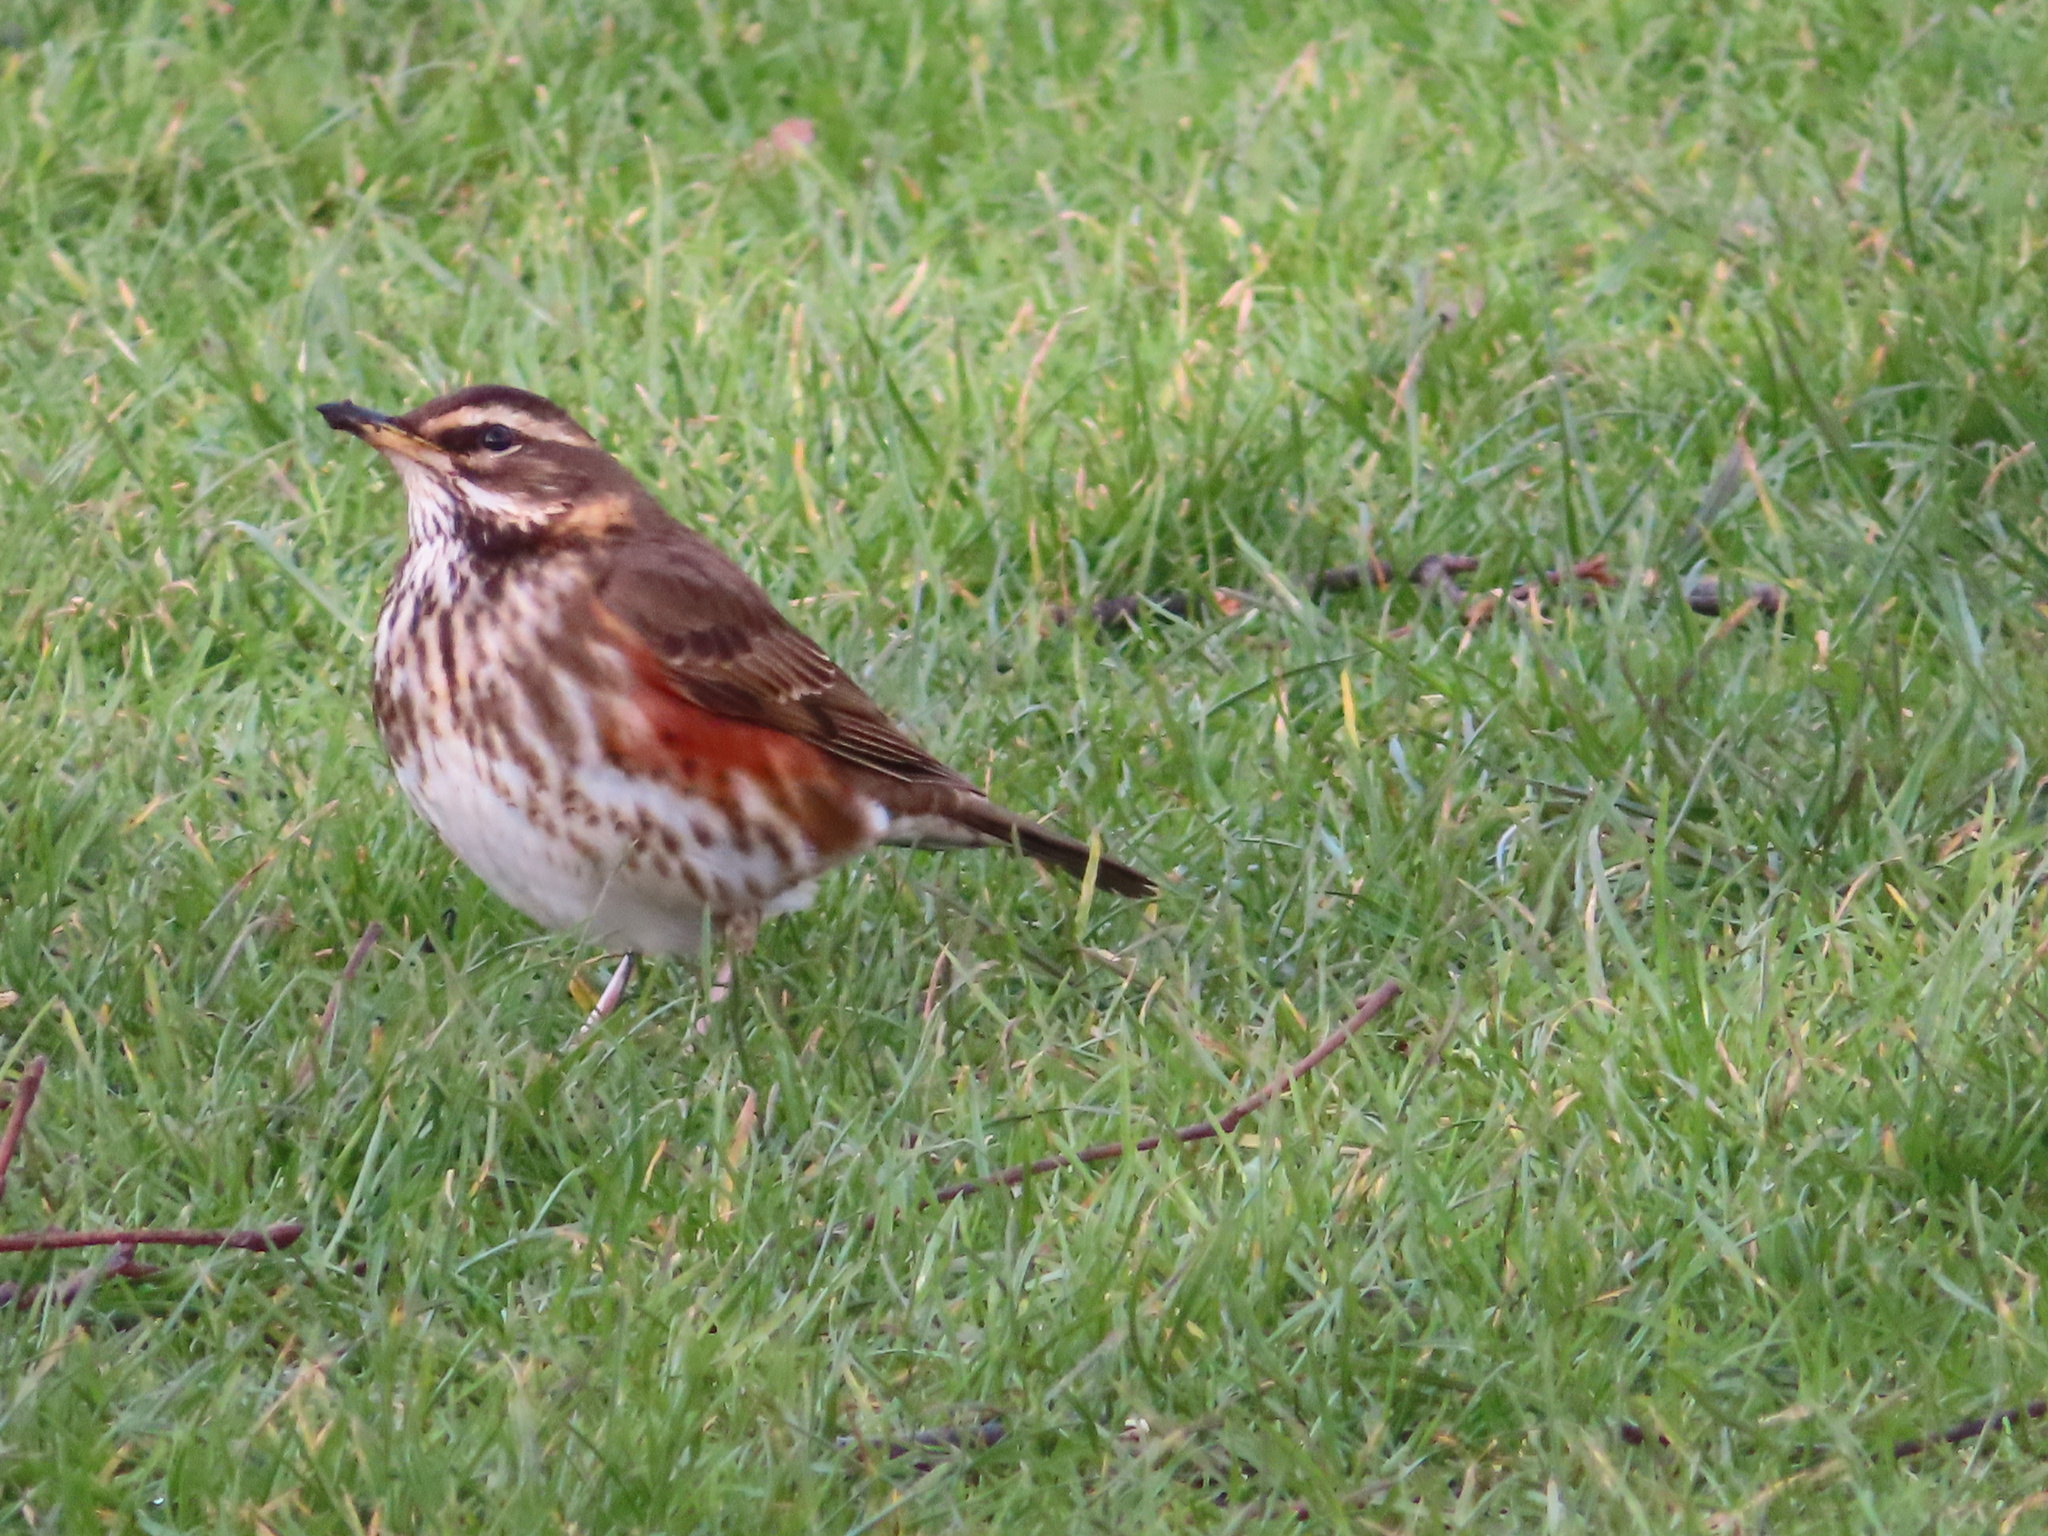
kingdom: Animalia
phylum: Chordata
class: Aves
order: Passeriformes
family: Turdidae
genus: Turdus
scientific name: Turdus iliacus
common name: Redwing
